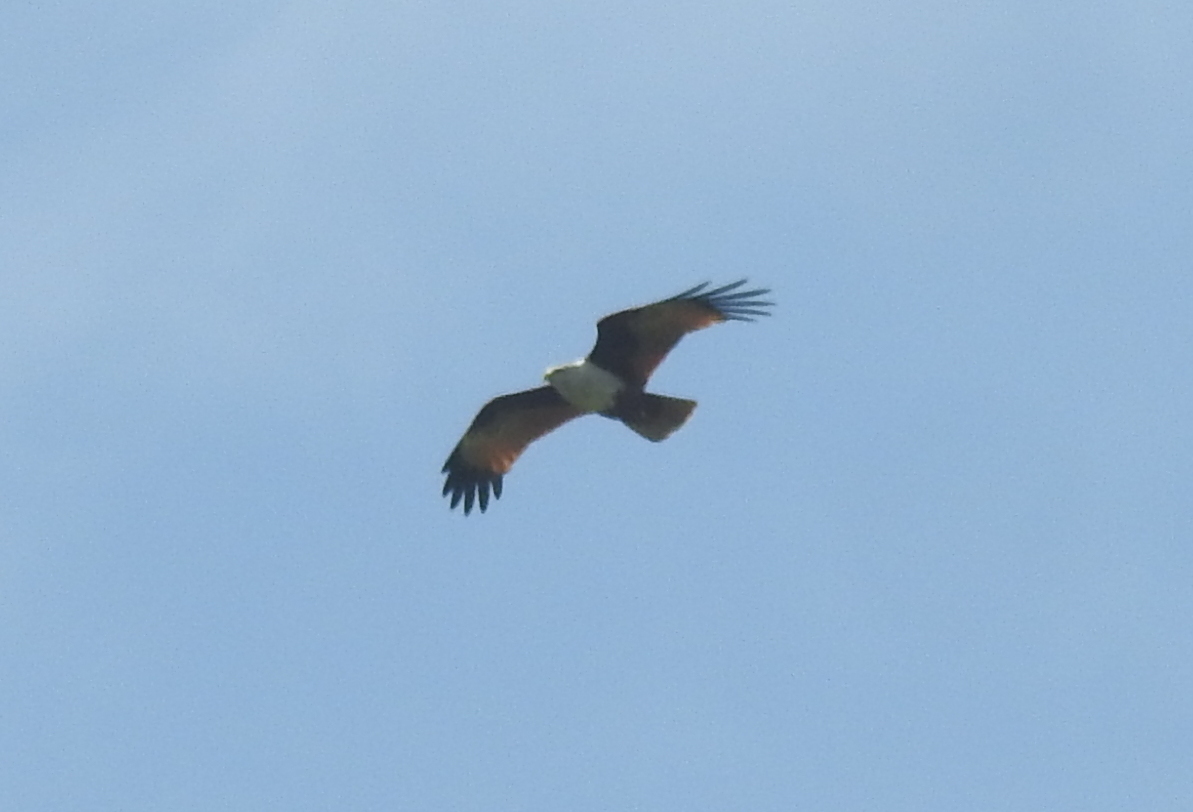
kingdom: Animalia
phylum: Chordata
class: Aves
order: Accipitriformes
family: Accipitridae
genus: Haliastur
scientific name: Haliastur indus
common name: Brahminy kite
